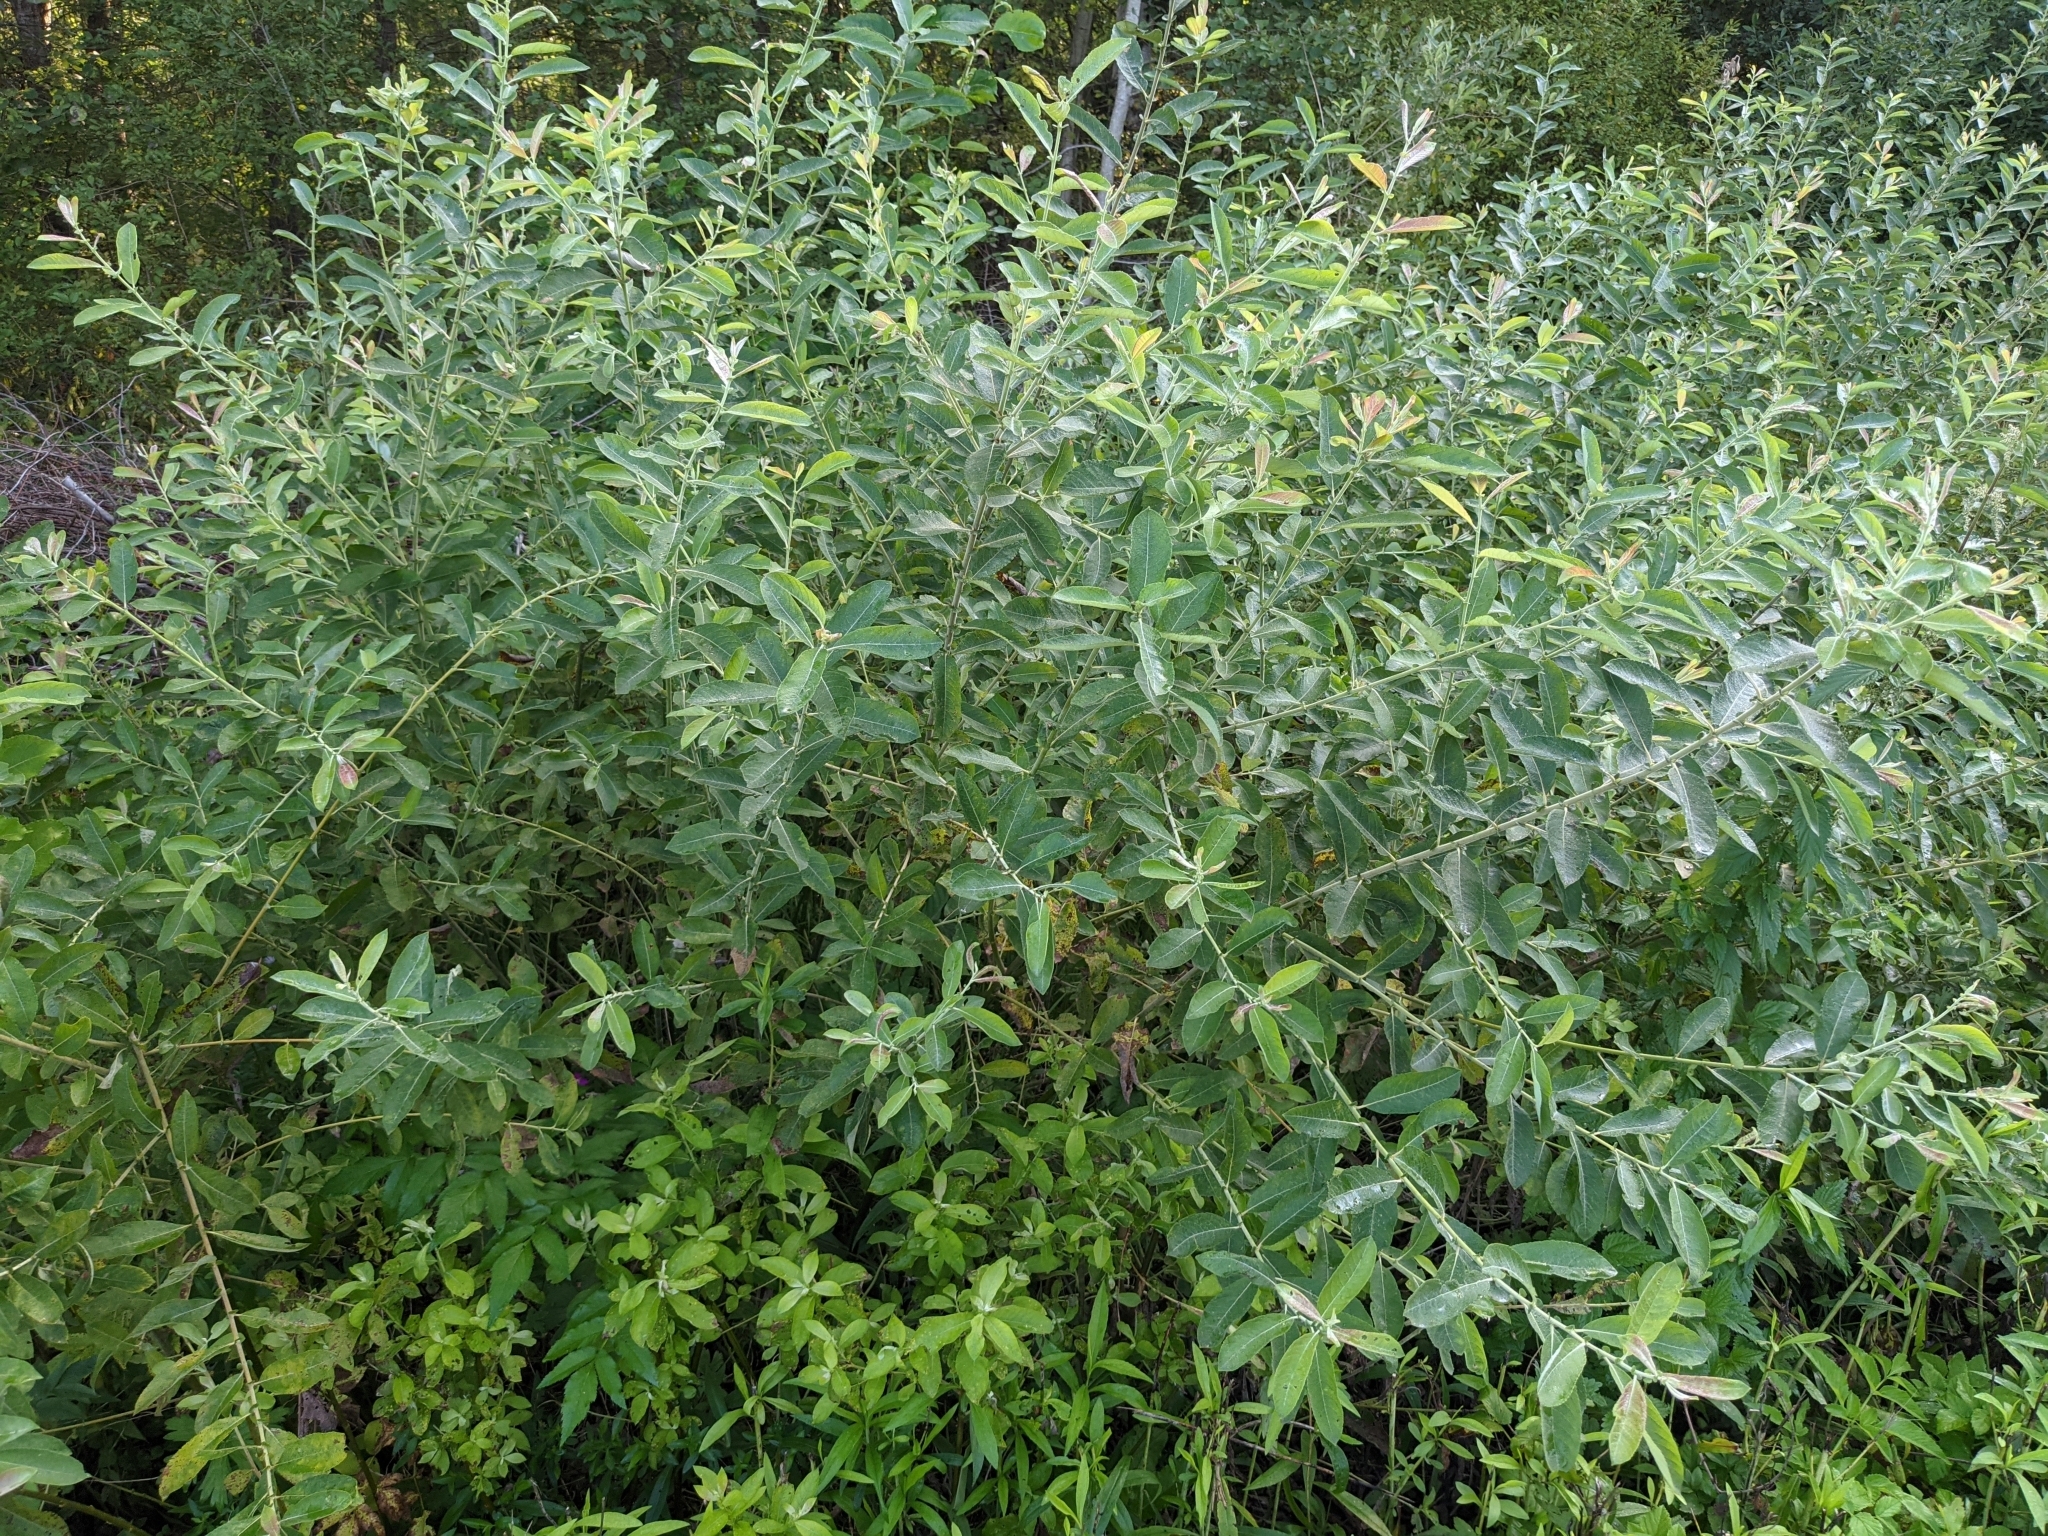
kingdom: Plantae
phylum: Tracheophyta
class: Magnoliopsida
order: Malpighiales
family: Salicaceae
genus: Salix
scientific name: Salix cinerea
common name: Common sallow
